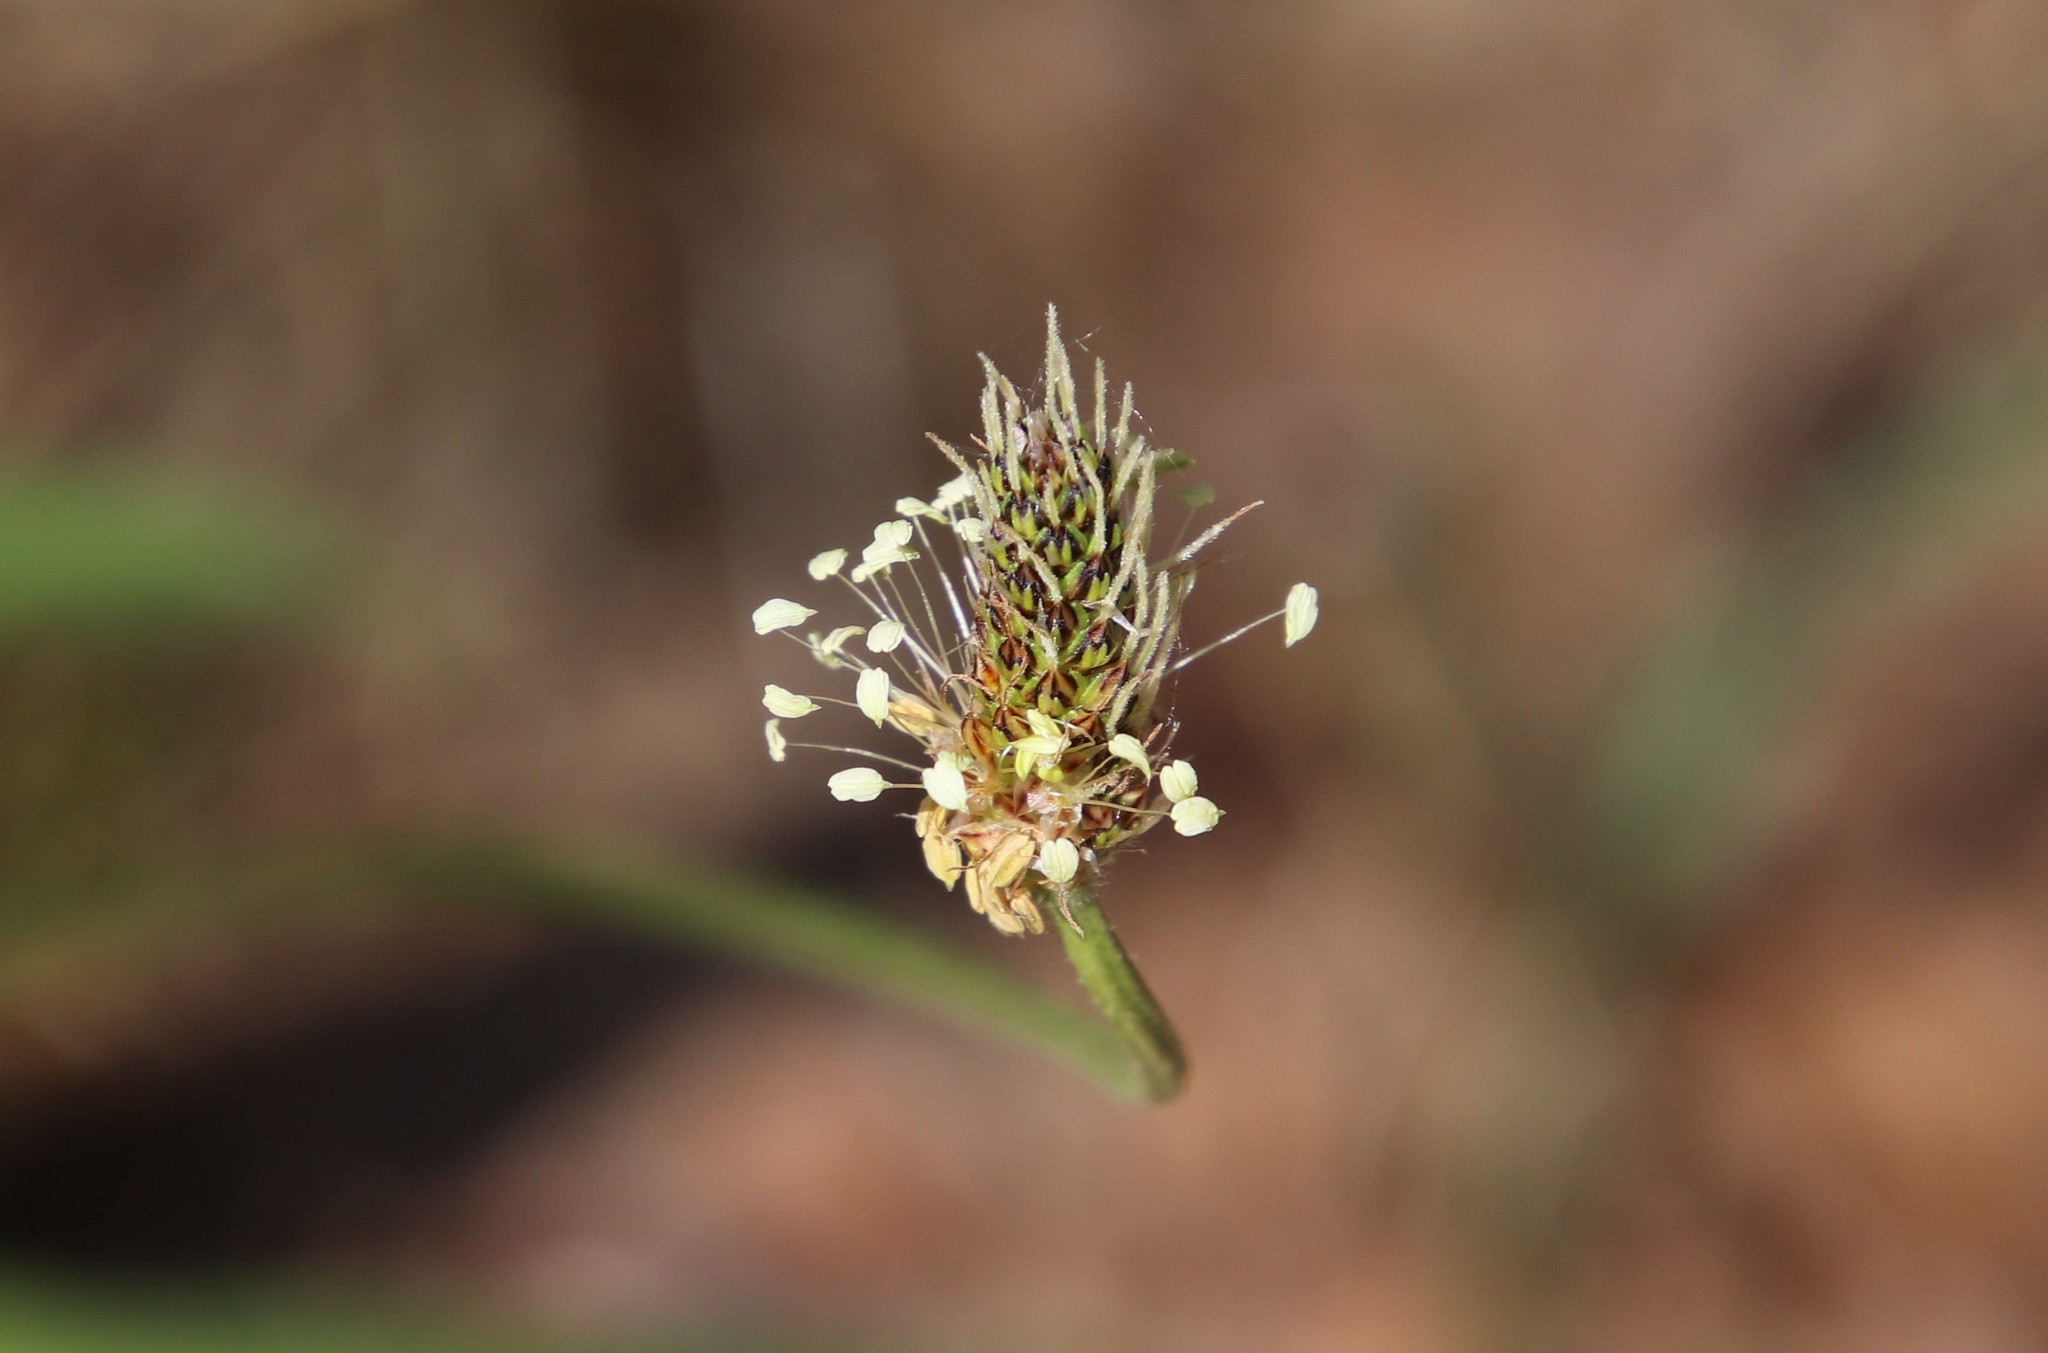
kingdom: Plantae
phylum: Tracheophyta
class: Magnoliopsida
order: Lamiales
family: Plantaginaceae
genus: Plantago
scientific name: Plantago lanceolata
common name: Ribwort plantain
